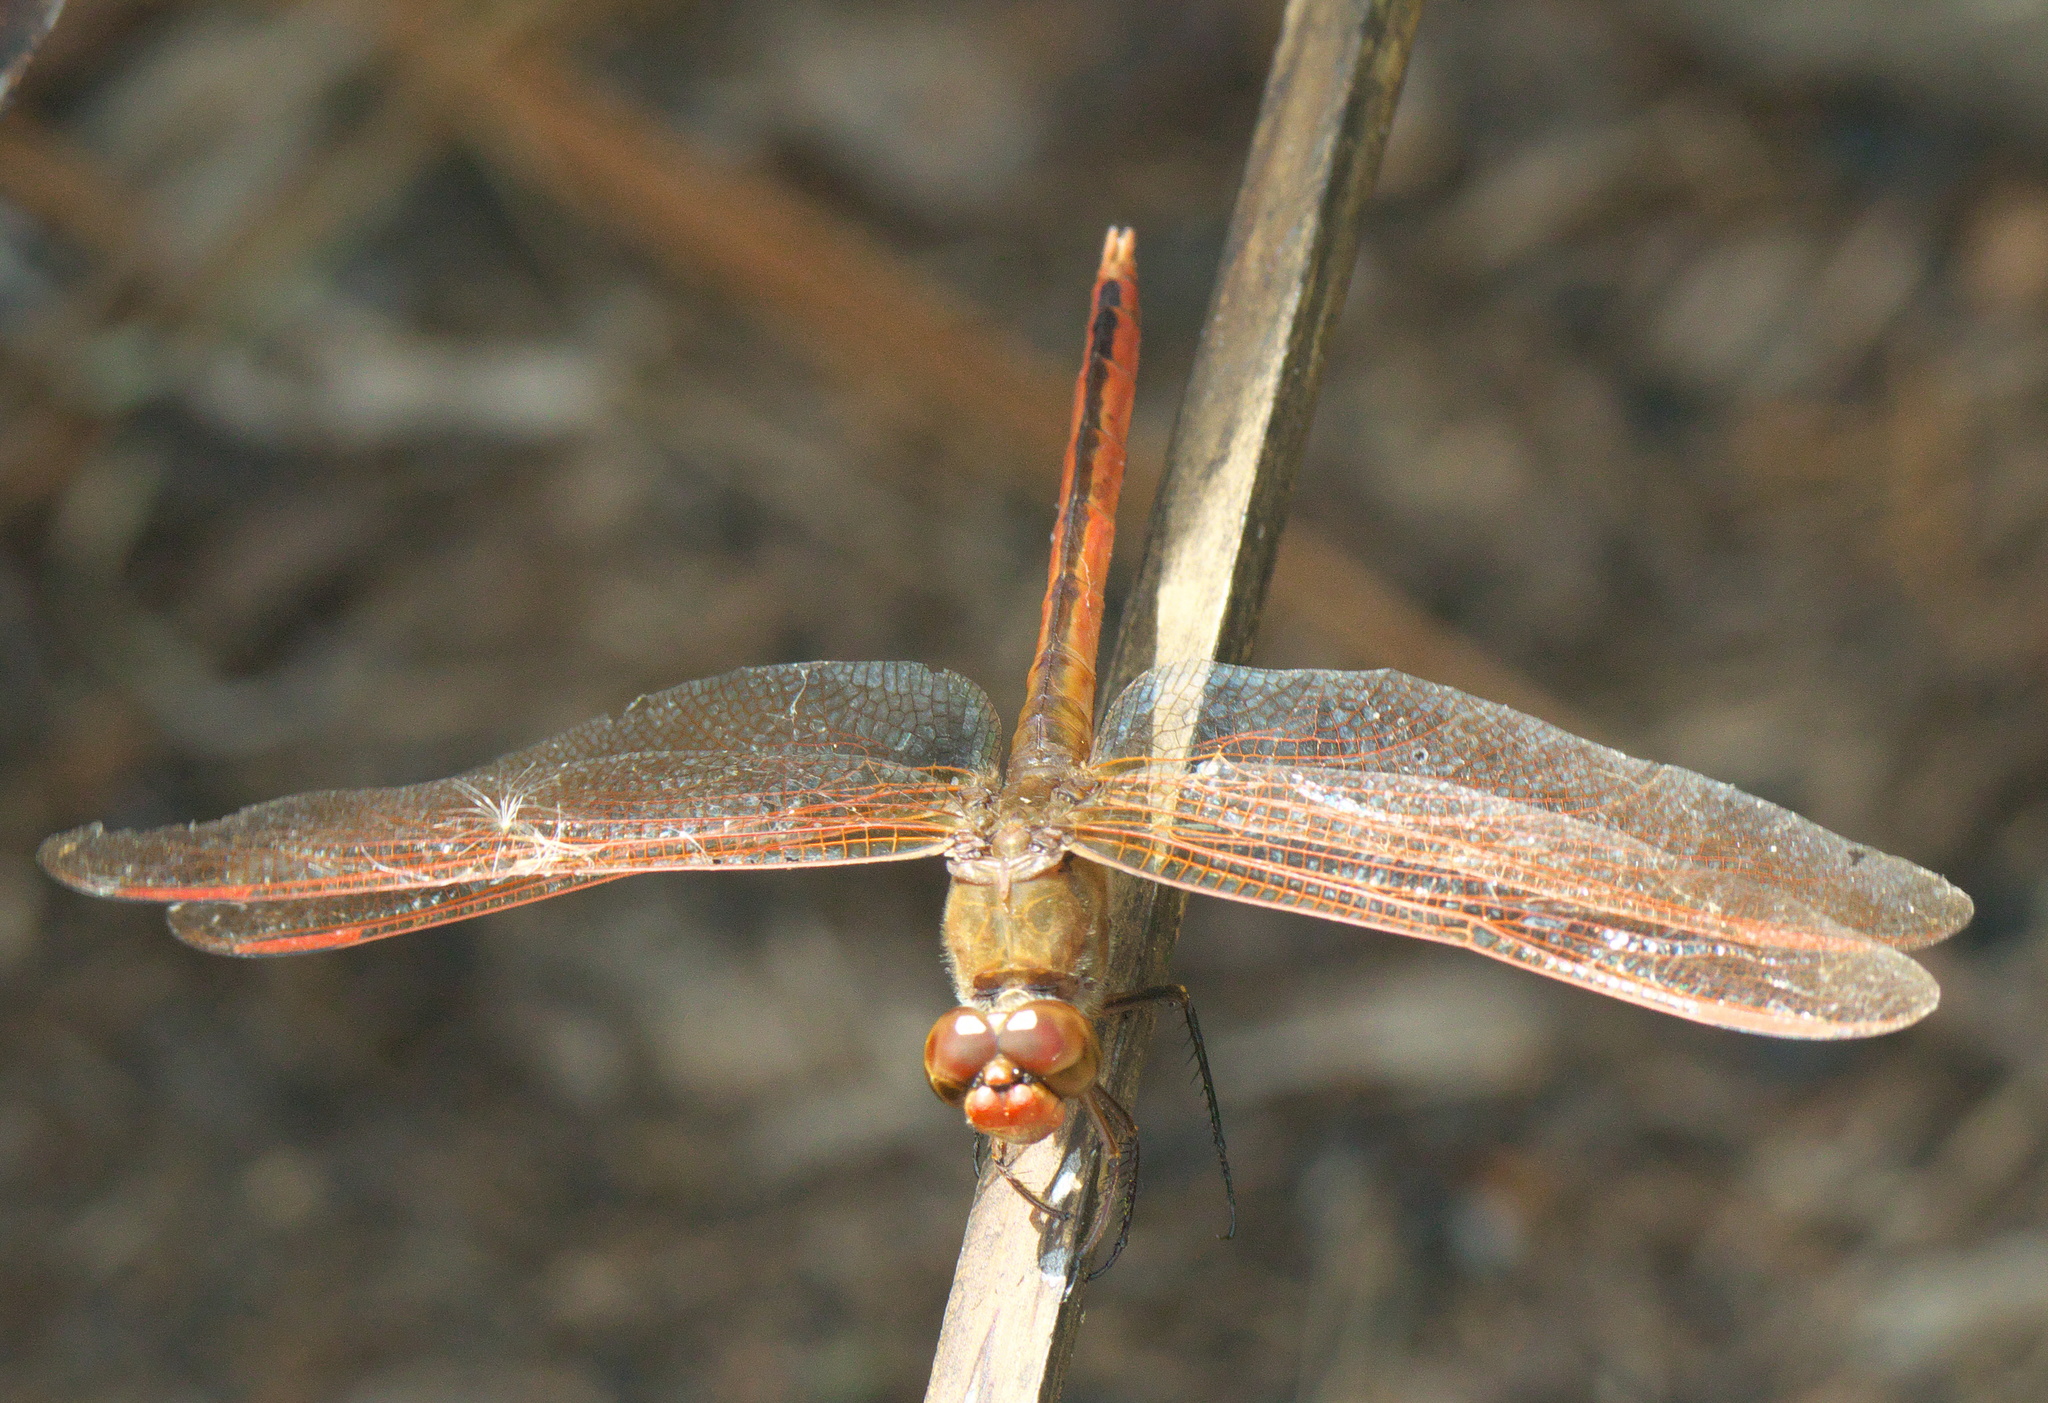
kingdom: Animalia
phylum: Arthropoda
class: Insecta
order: Odonata
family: Libellulidae
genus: Libellula
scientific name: Libellula needhami
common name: Needham's skimmer
